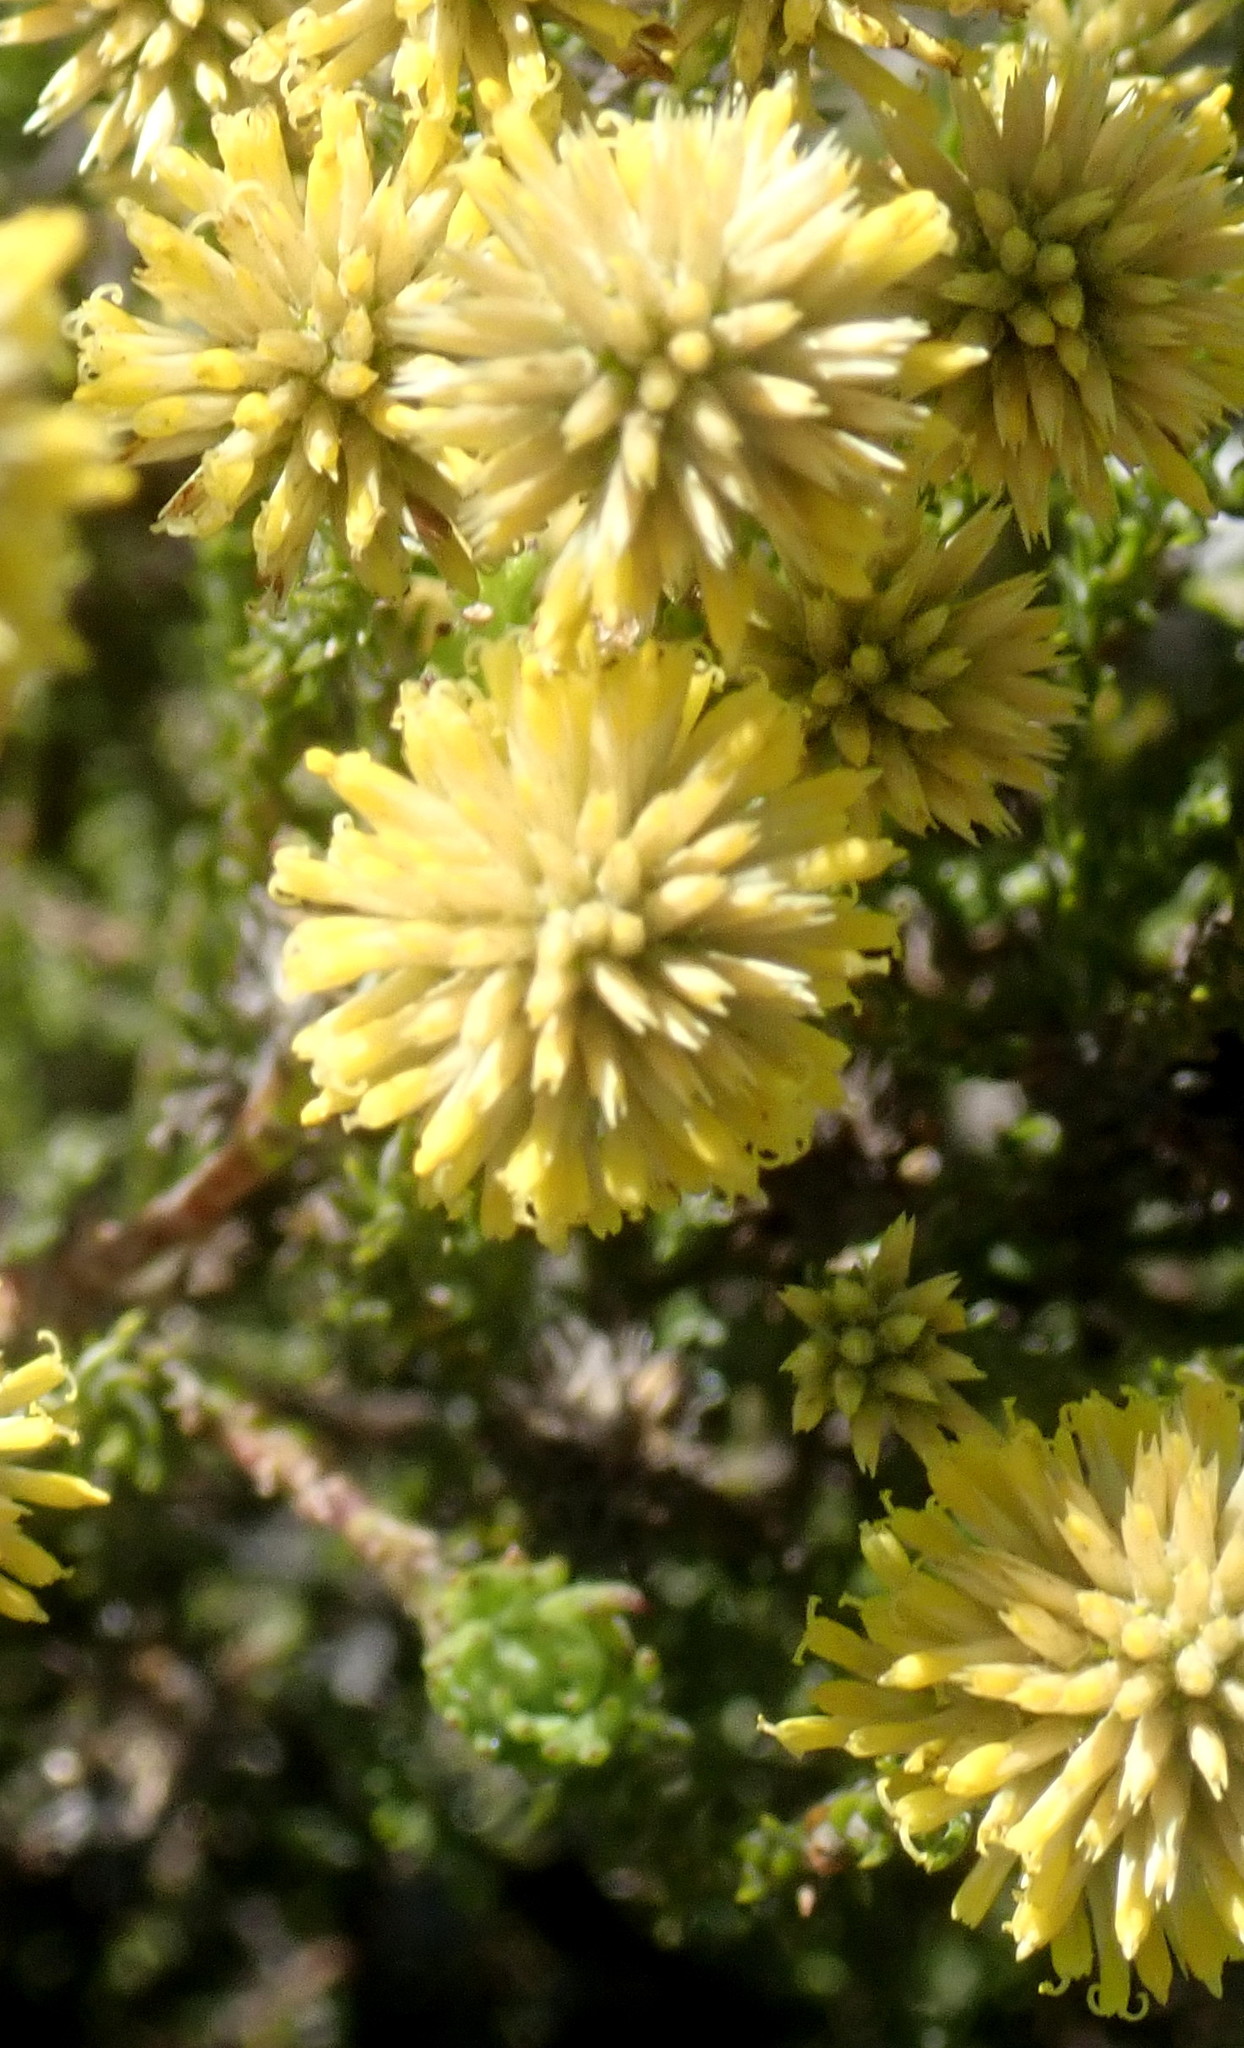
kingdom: Plantae
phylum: Tracheophyta
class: Magnoliopsida
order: Asterales
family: Asteraceae
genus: Seriphium
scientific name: Seriphium spirale
